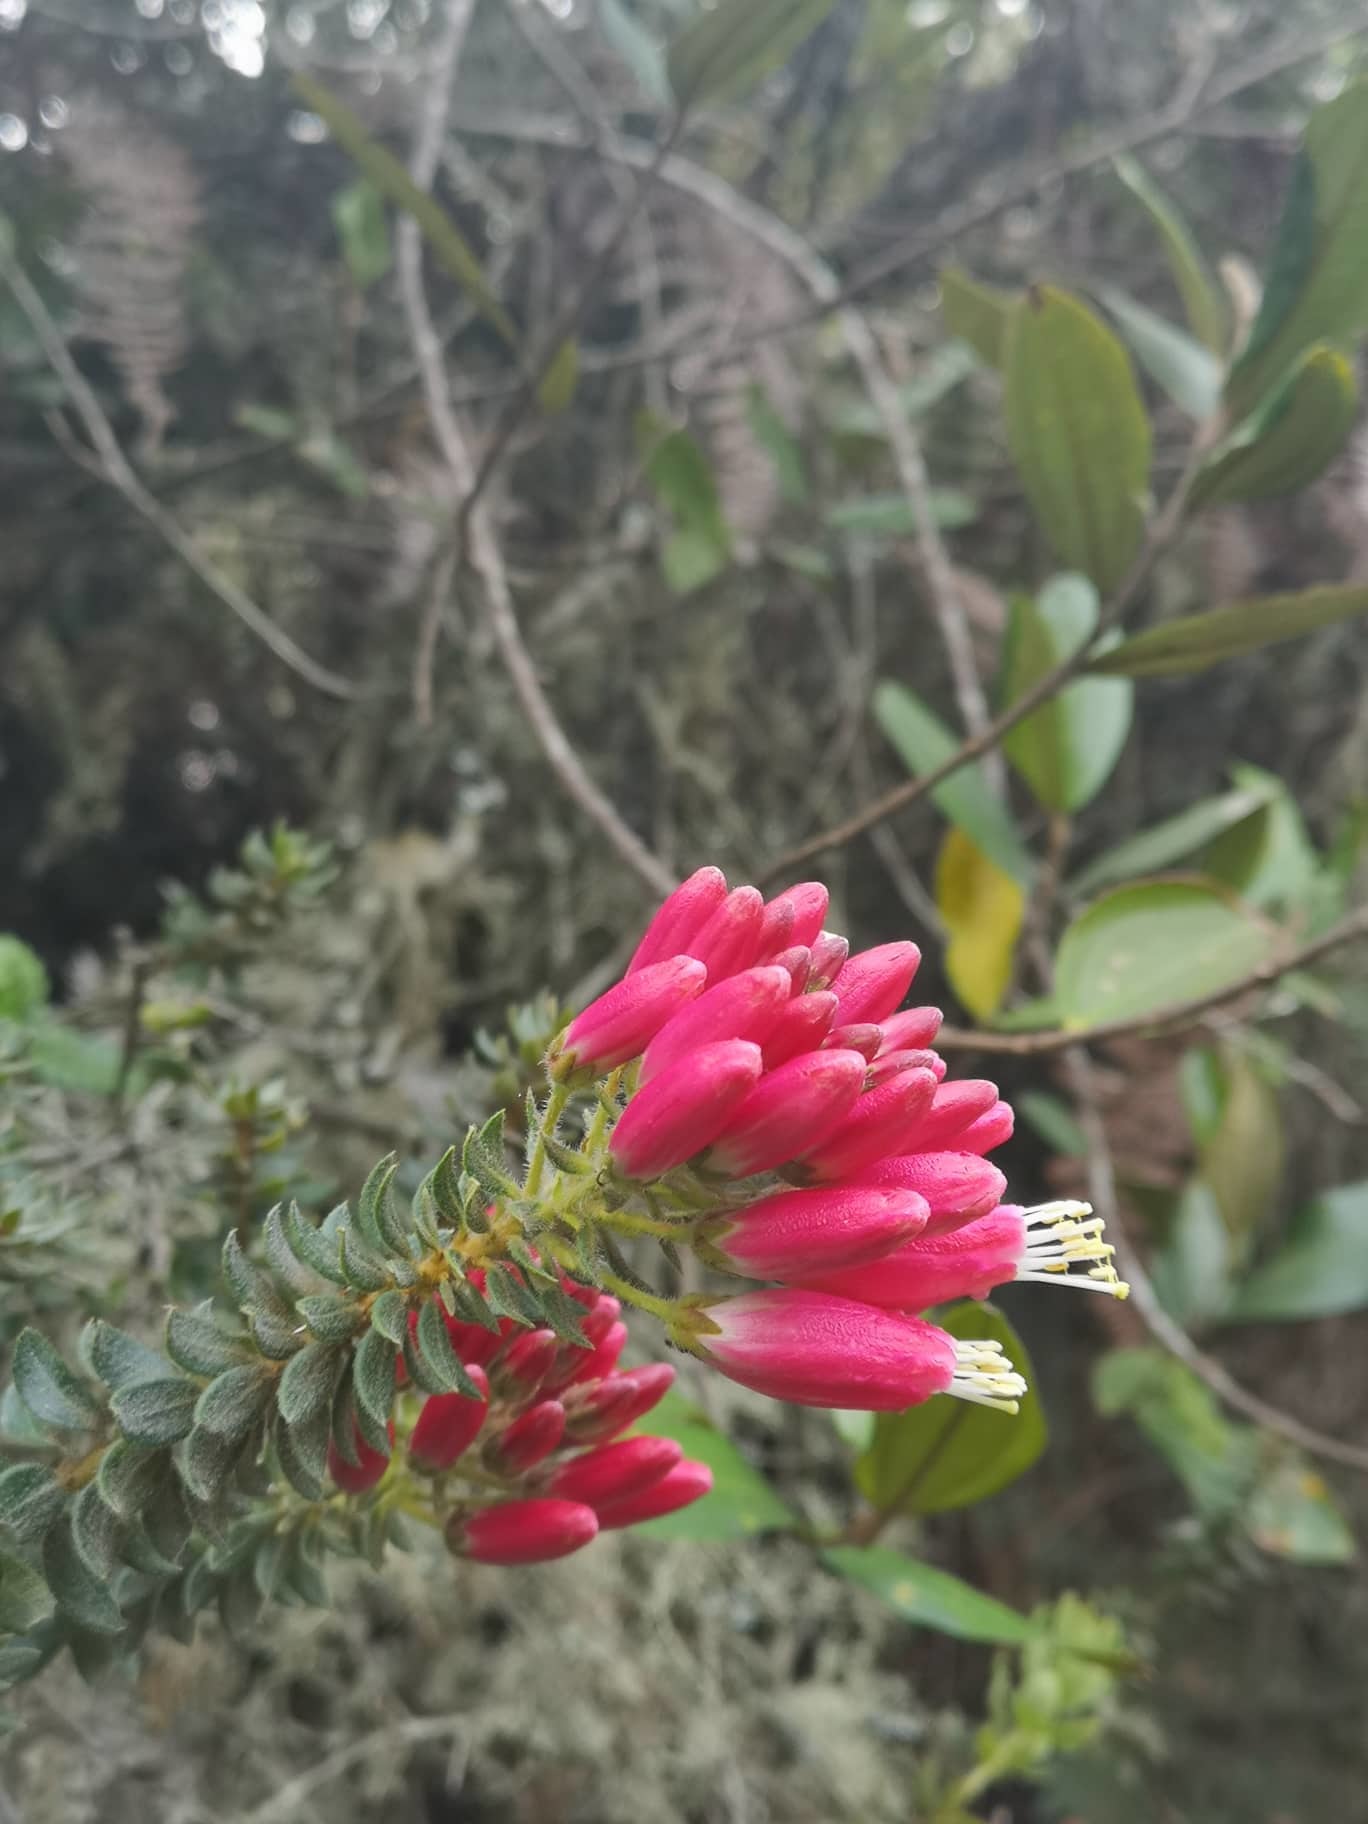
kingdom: Plantae
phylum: Tracheophyta
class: Magnoliopsida
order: Ericales
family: Ericaceae
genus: Bejaria
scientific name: Bejaria resinosa
